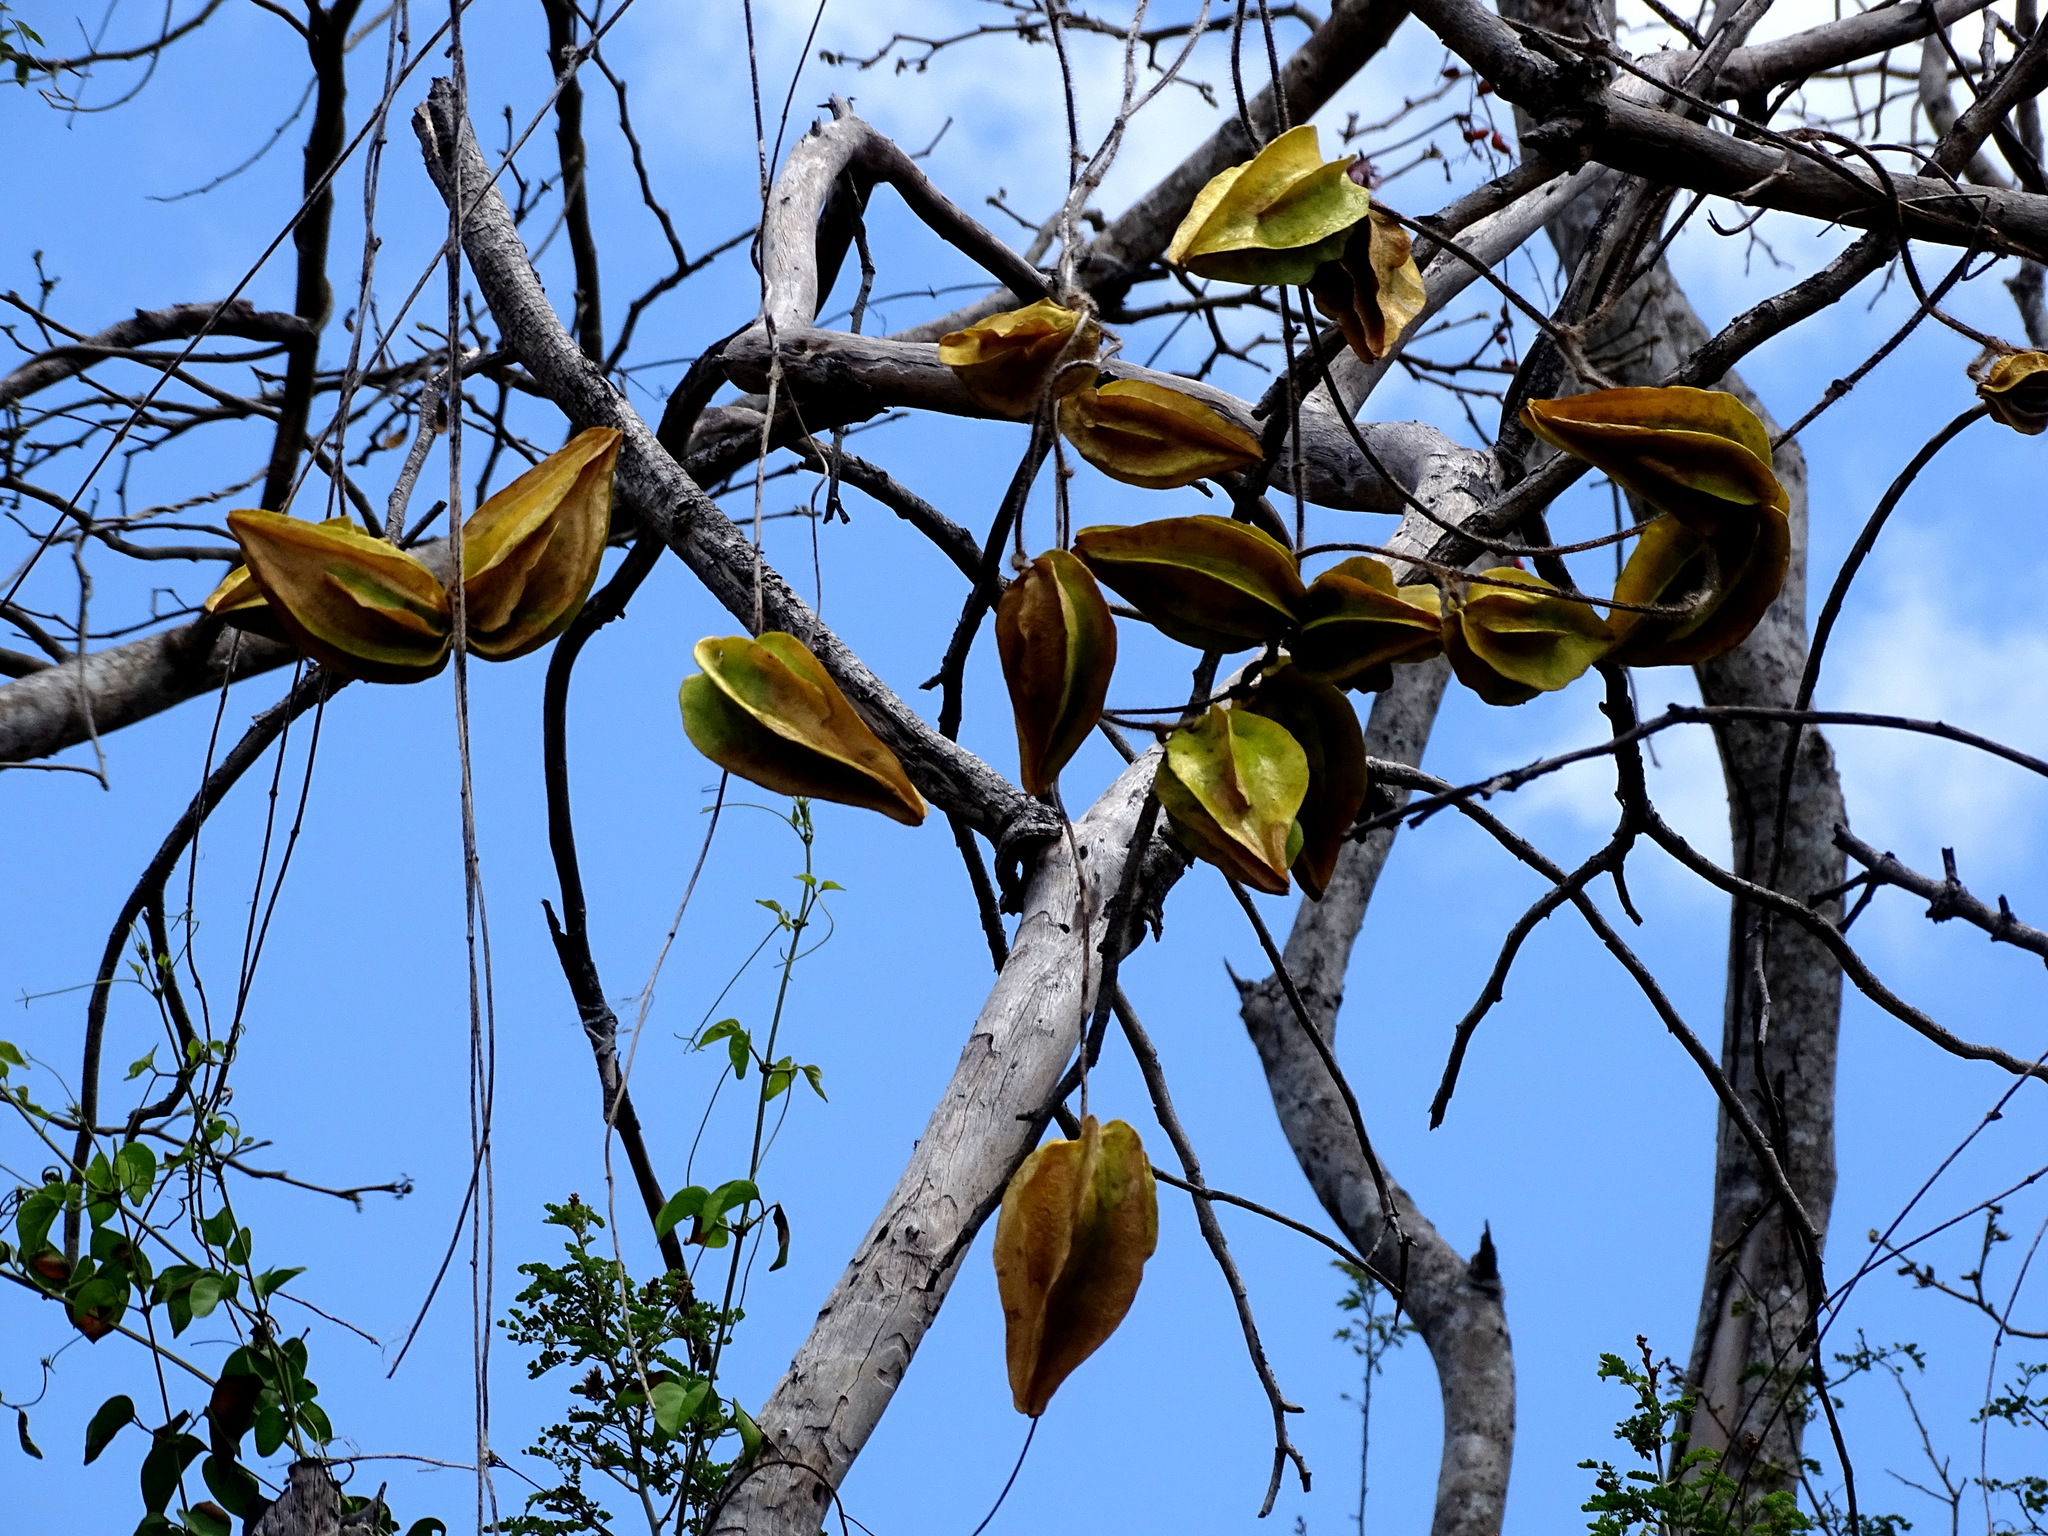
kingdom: Plantae
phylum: Tracheophyta
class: Magnoliopsida
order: Gentianales
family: Apocynaceae
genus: Macroscepis
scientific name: Macroscepis yucatanensis
